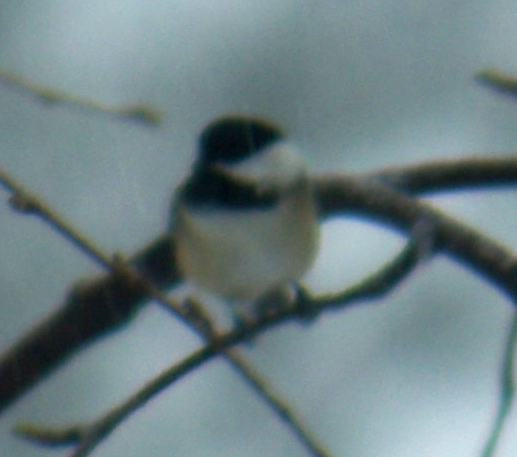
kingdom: Animalia
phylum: Chordata
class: Aves
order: Passeriformes
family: Paridae
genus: Poecile
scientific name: Poecile atricapillus
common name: Black-capped chickadee
